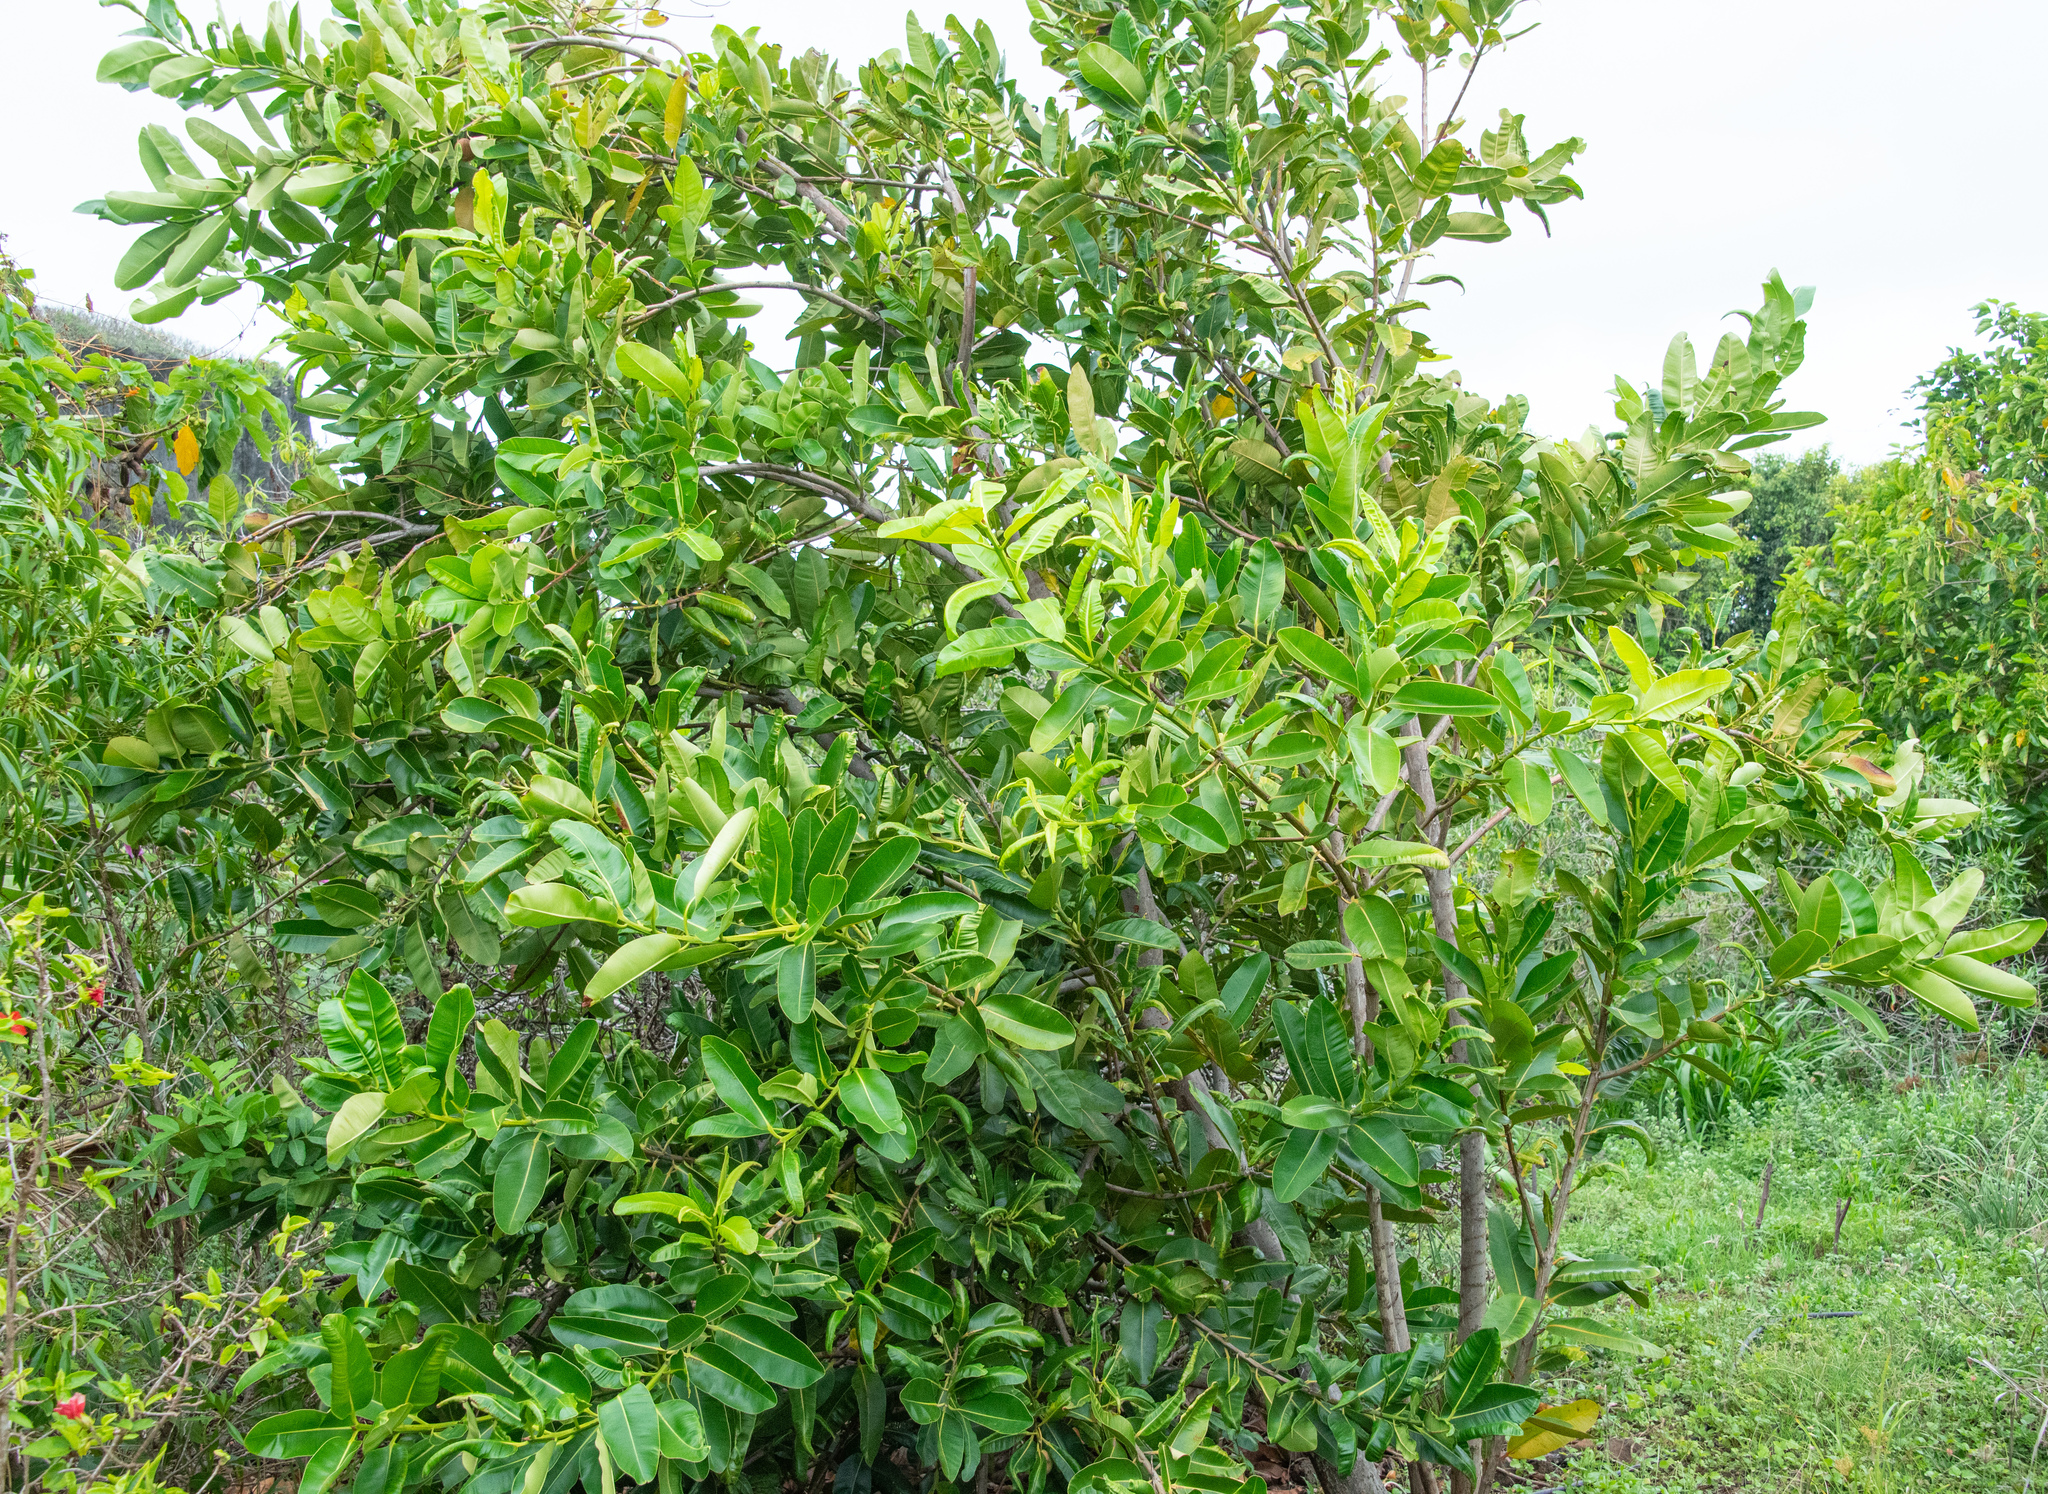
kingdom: Plantae
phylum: Tracheophyta
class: Magnoliopsida
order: Malpighiales
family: Calophyllaceae
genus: Calophyllum
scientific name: Calophyllum inophyllum
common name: Alexandrian laurel
